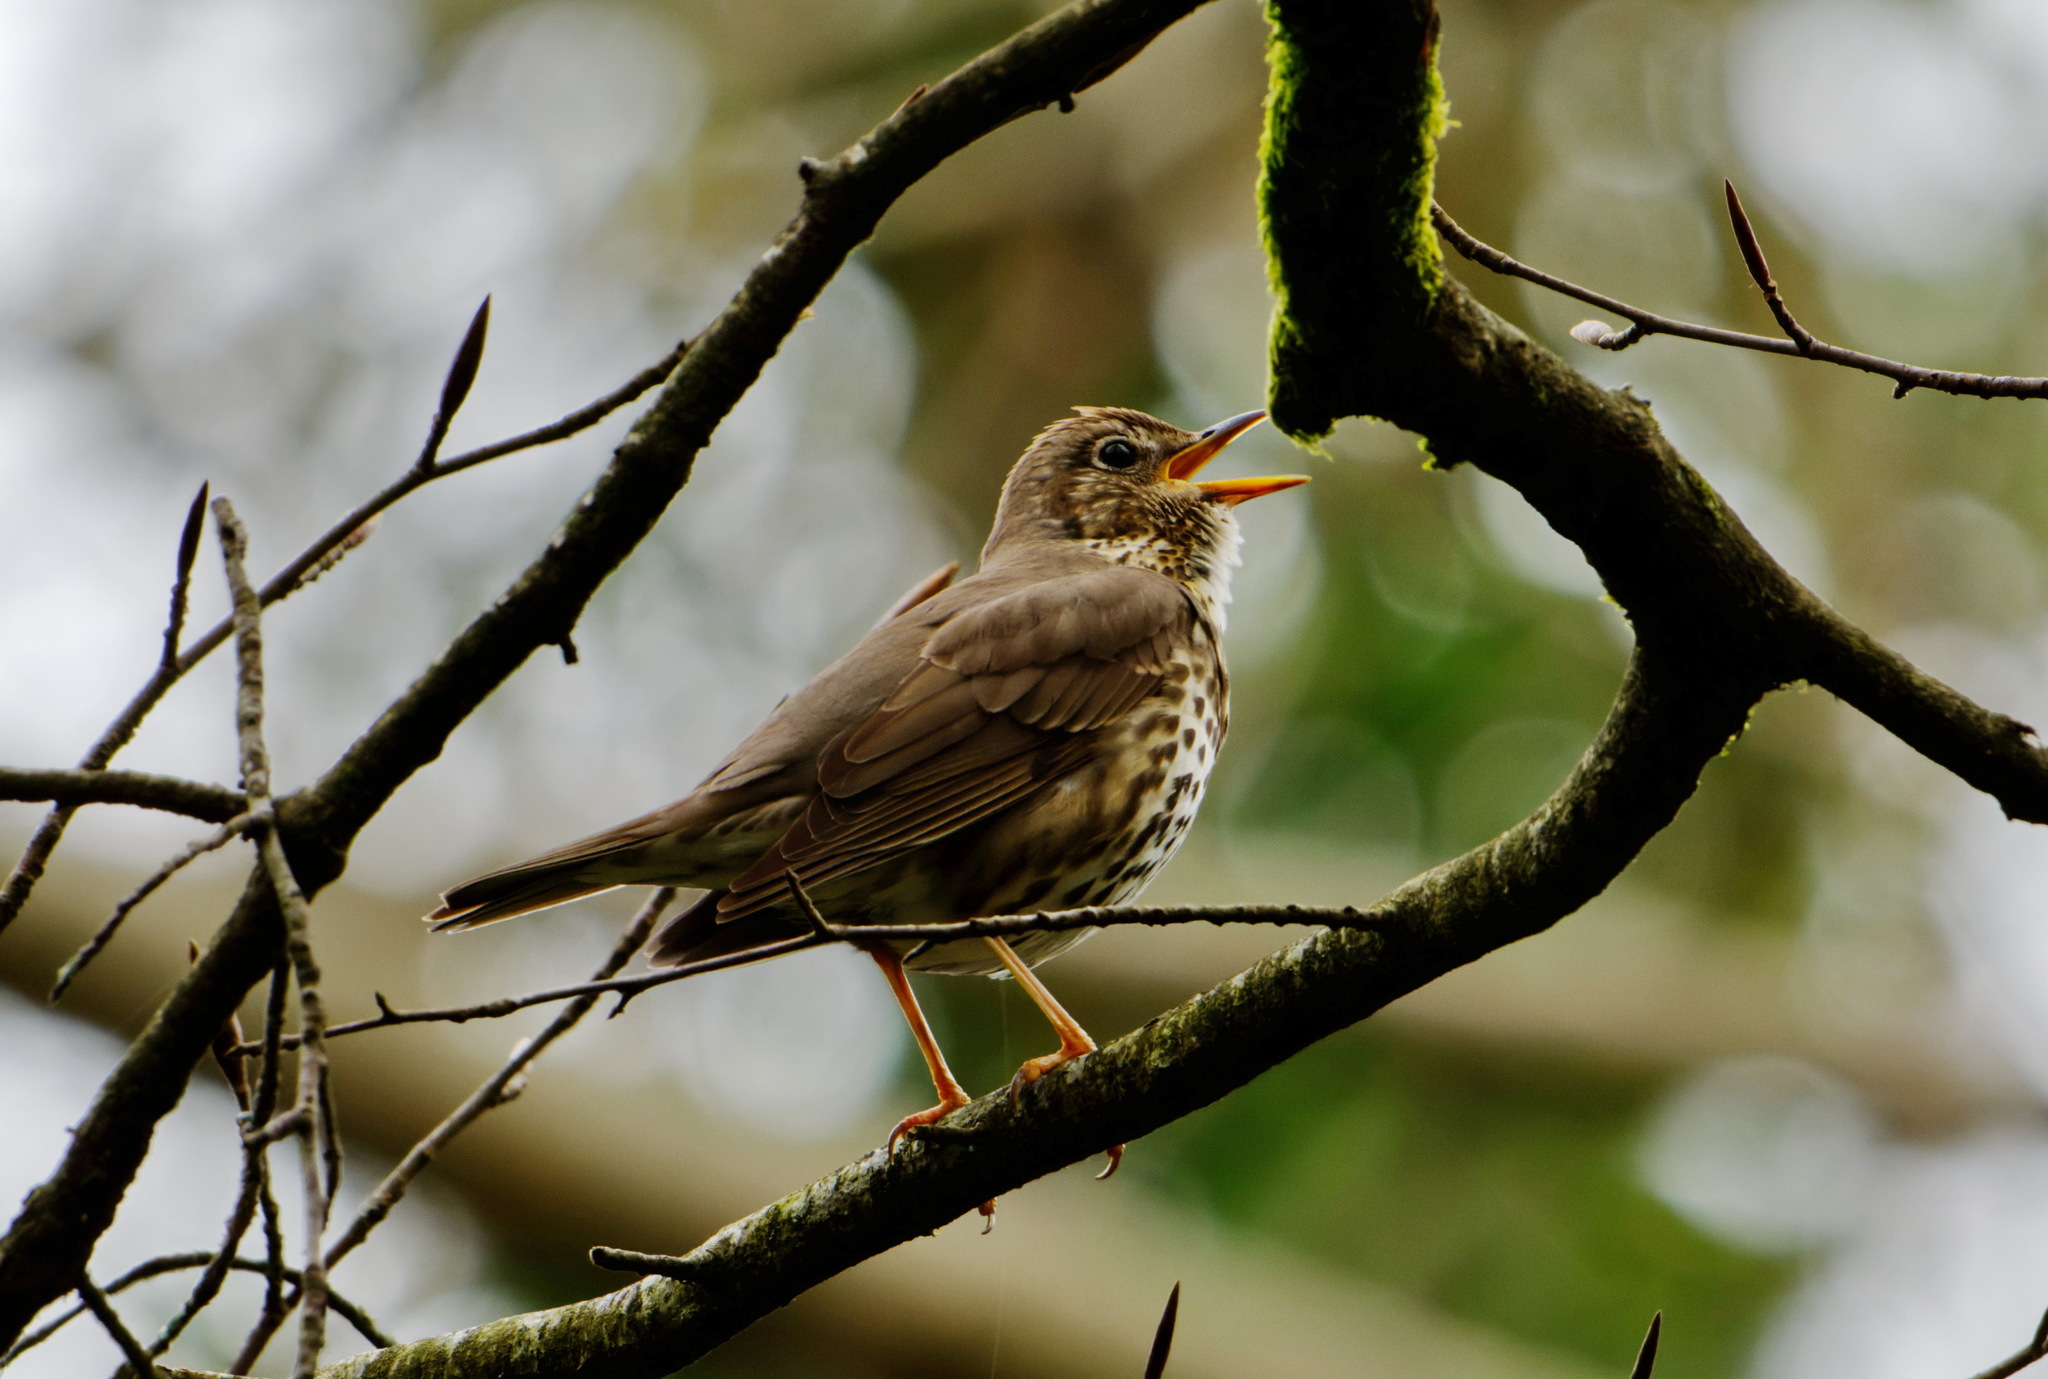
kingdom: Animalia
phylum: Chordata
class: Aves
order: Passeriformes
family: Turdidae
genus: Turdus
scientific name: Turdus philomelos
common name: Song thrush
